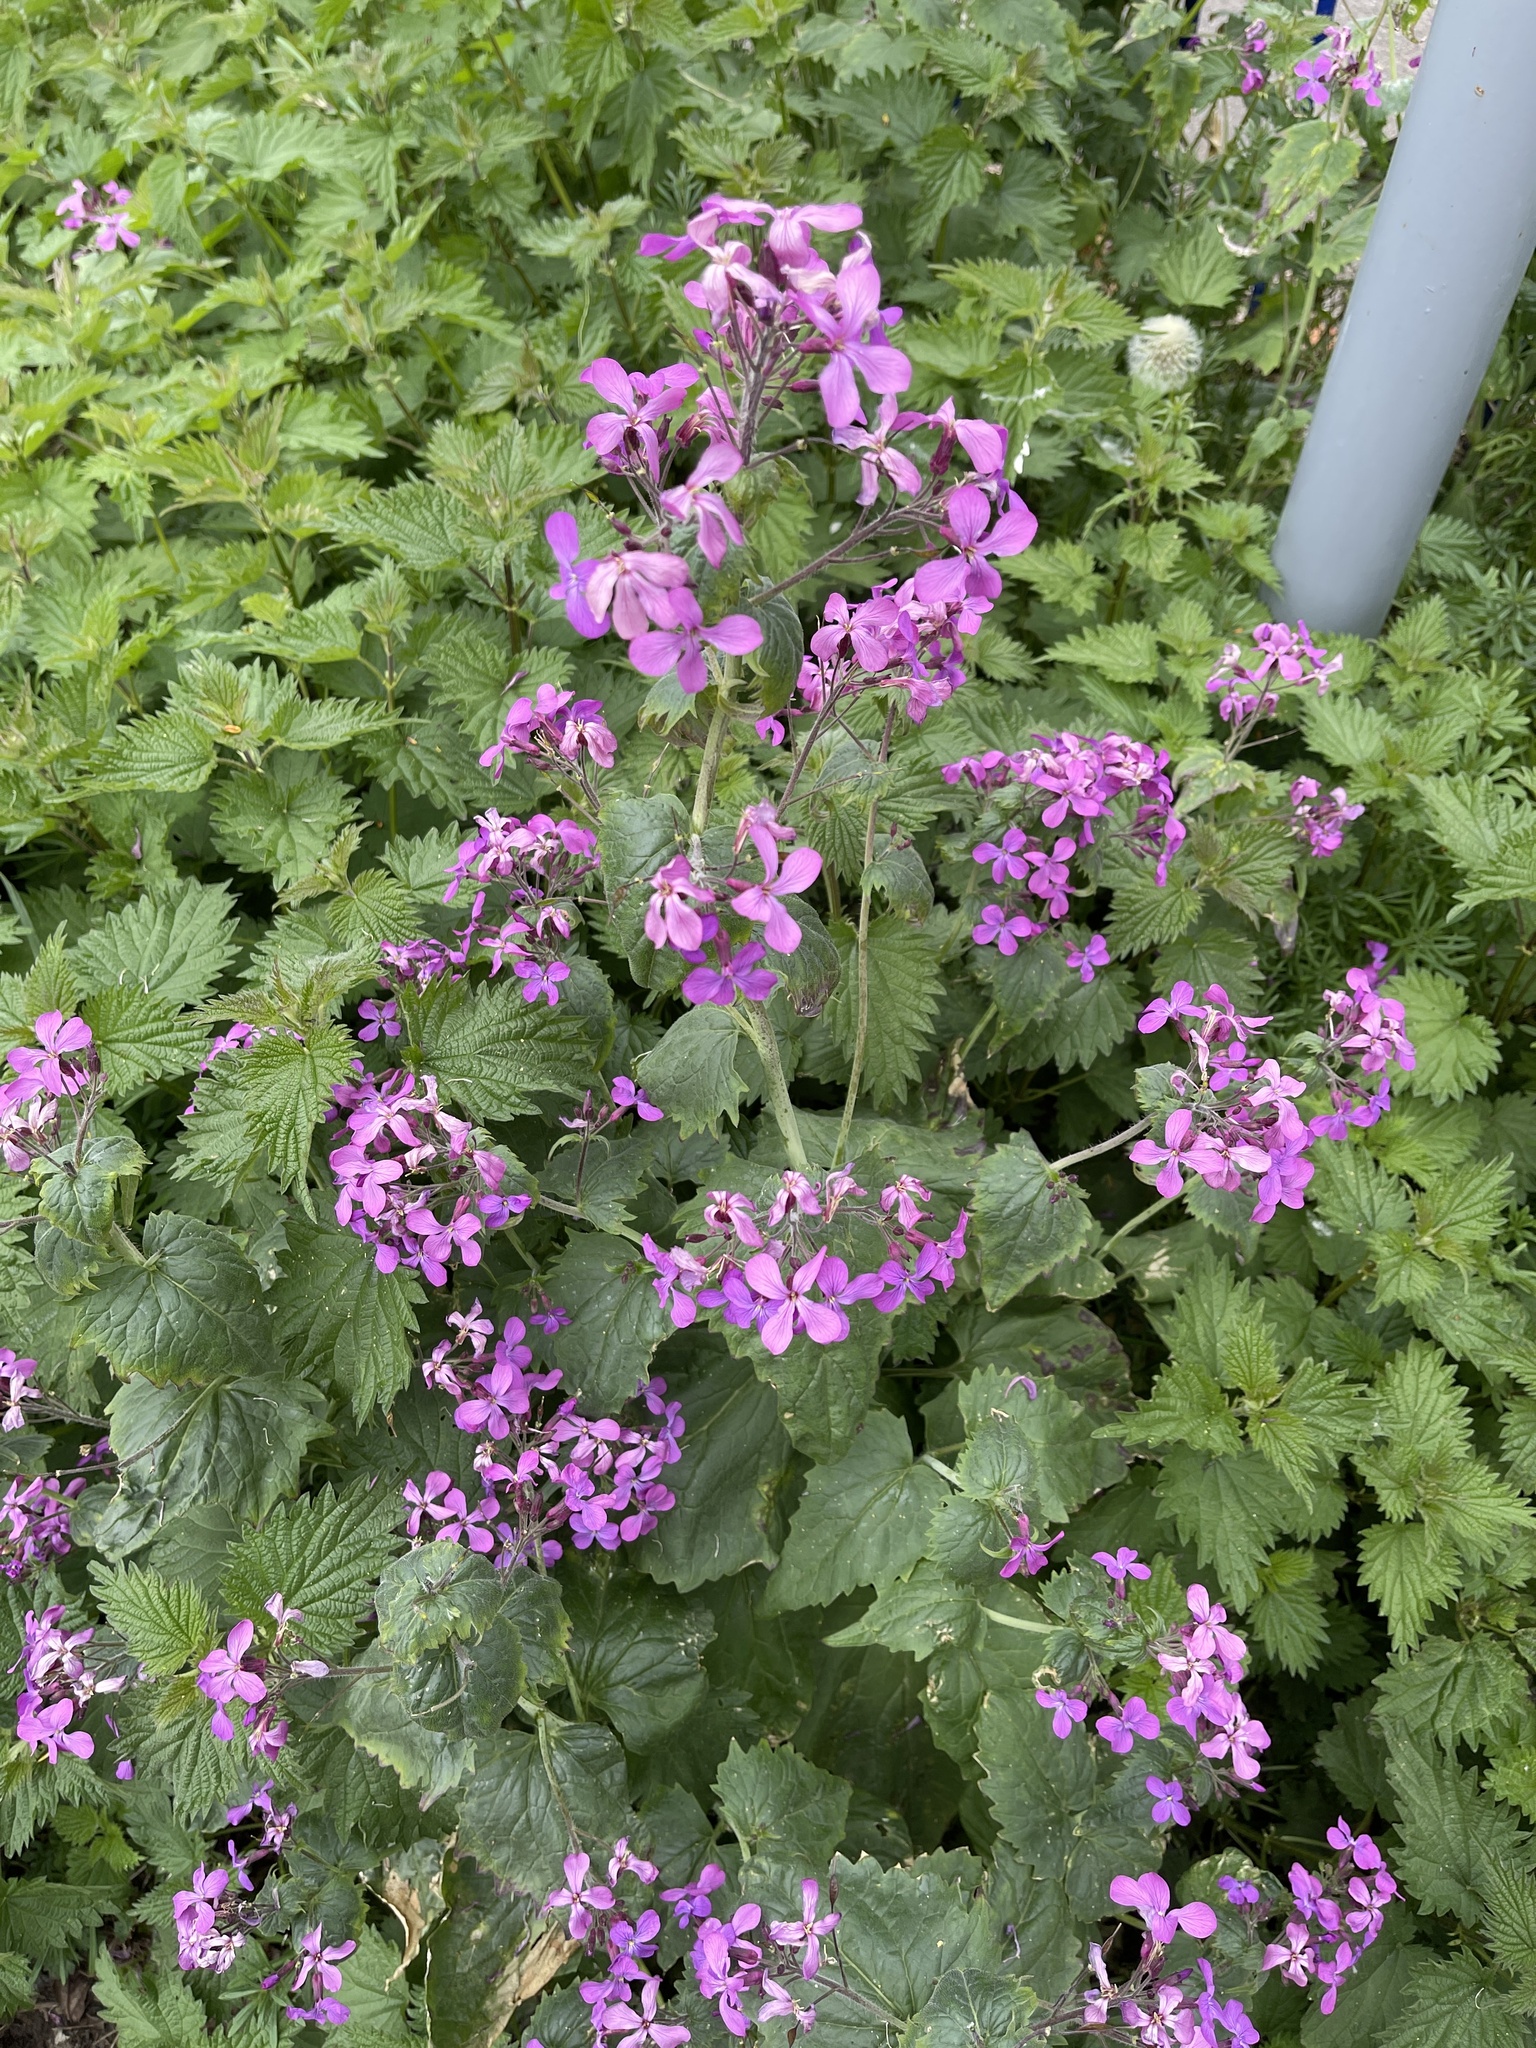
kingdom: Plantae
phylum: Tracheophyta
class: Magnoliopsida
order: Brassicales
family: Brassicaceae
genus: Lunaria
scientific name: Lunaria annua
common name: Honesty
